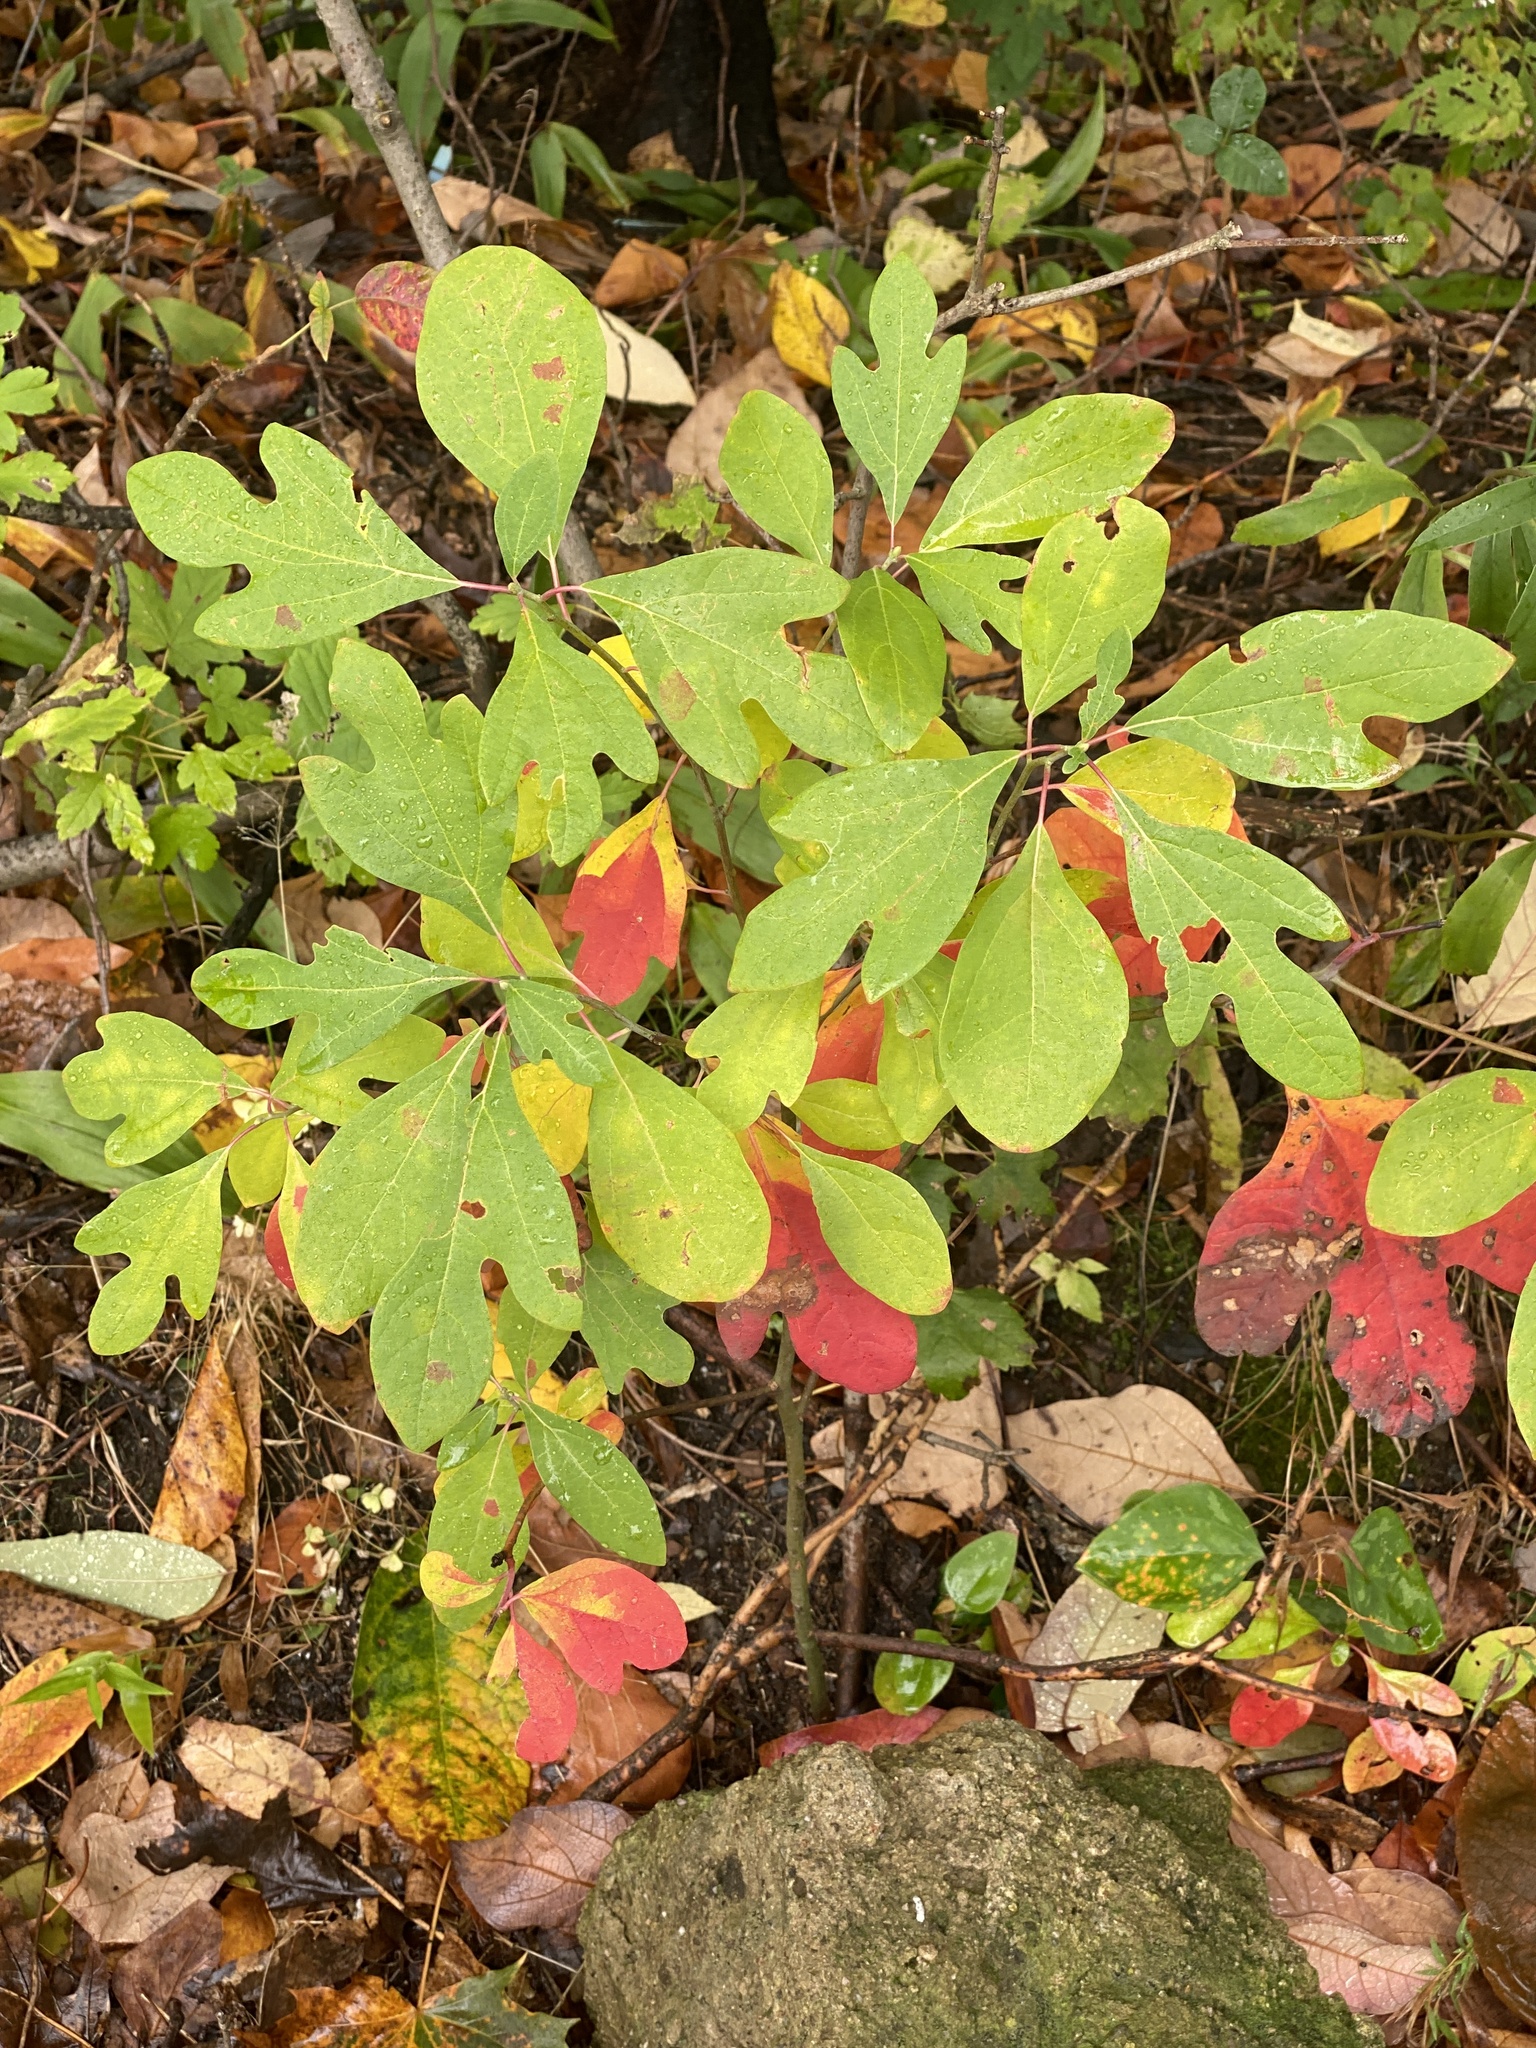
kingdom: Plantae
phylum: Tracheophyta
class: Magnoliopsida
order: Laurales
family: Lauraceae
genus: Sassafras
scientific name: Sassafras albidum
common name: Sassafras
